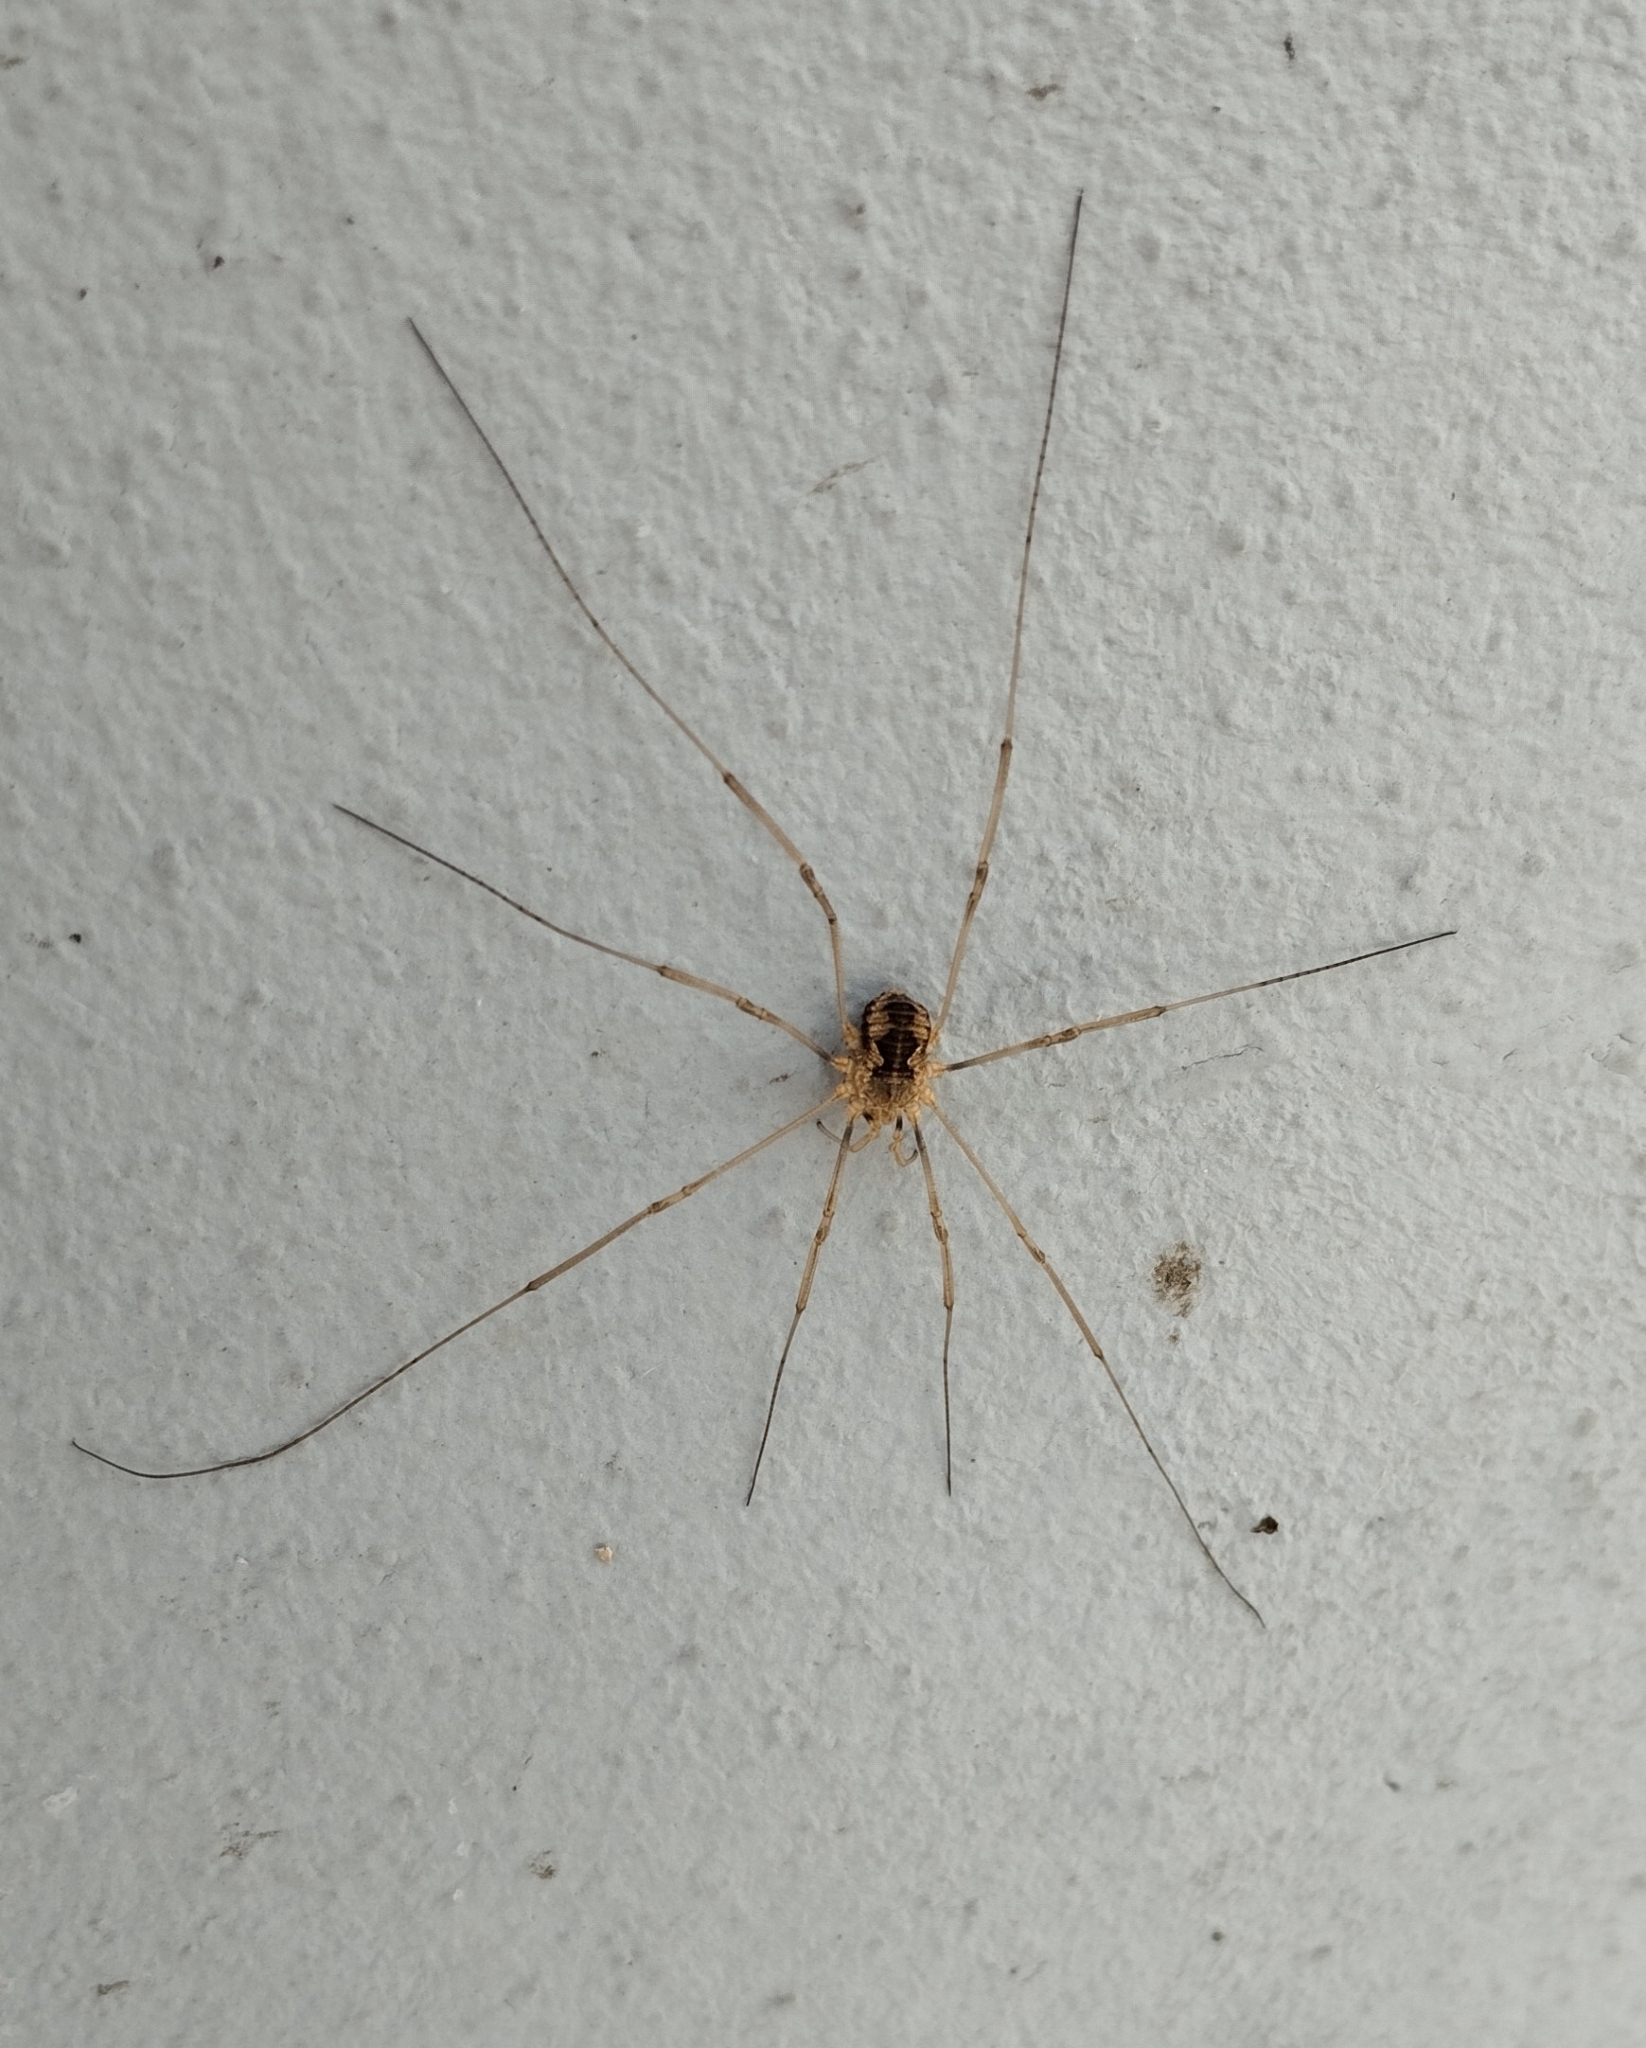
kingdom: Animalia
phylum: Arthropoda
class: Arachnida
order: Opiliones
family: Phalangiidae
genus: Phalangium
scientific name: Phalangium opilio
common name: Daddy longleg
